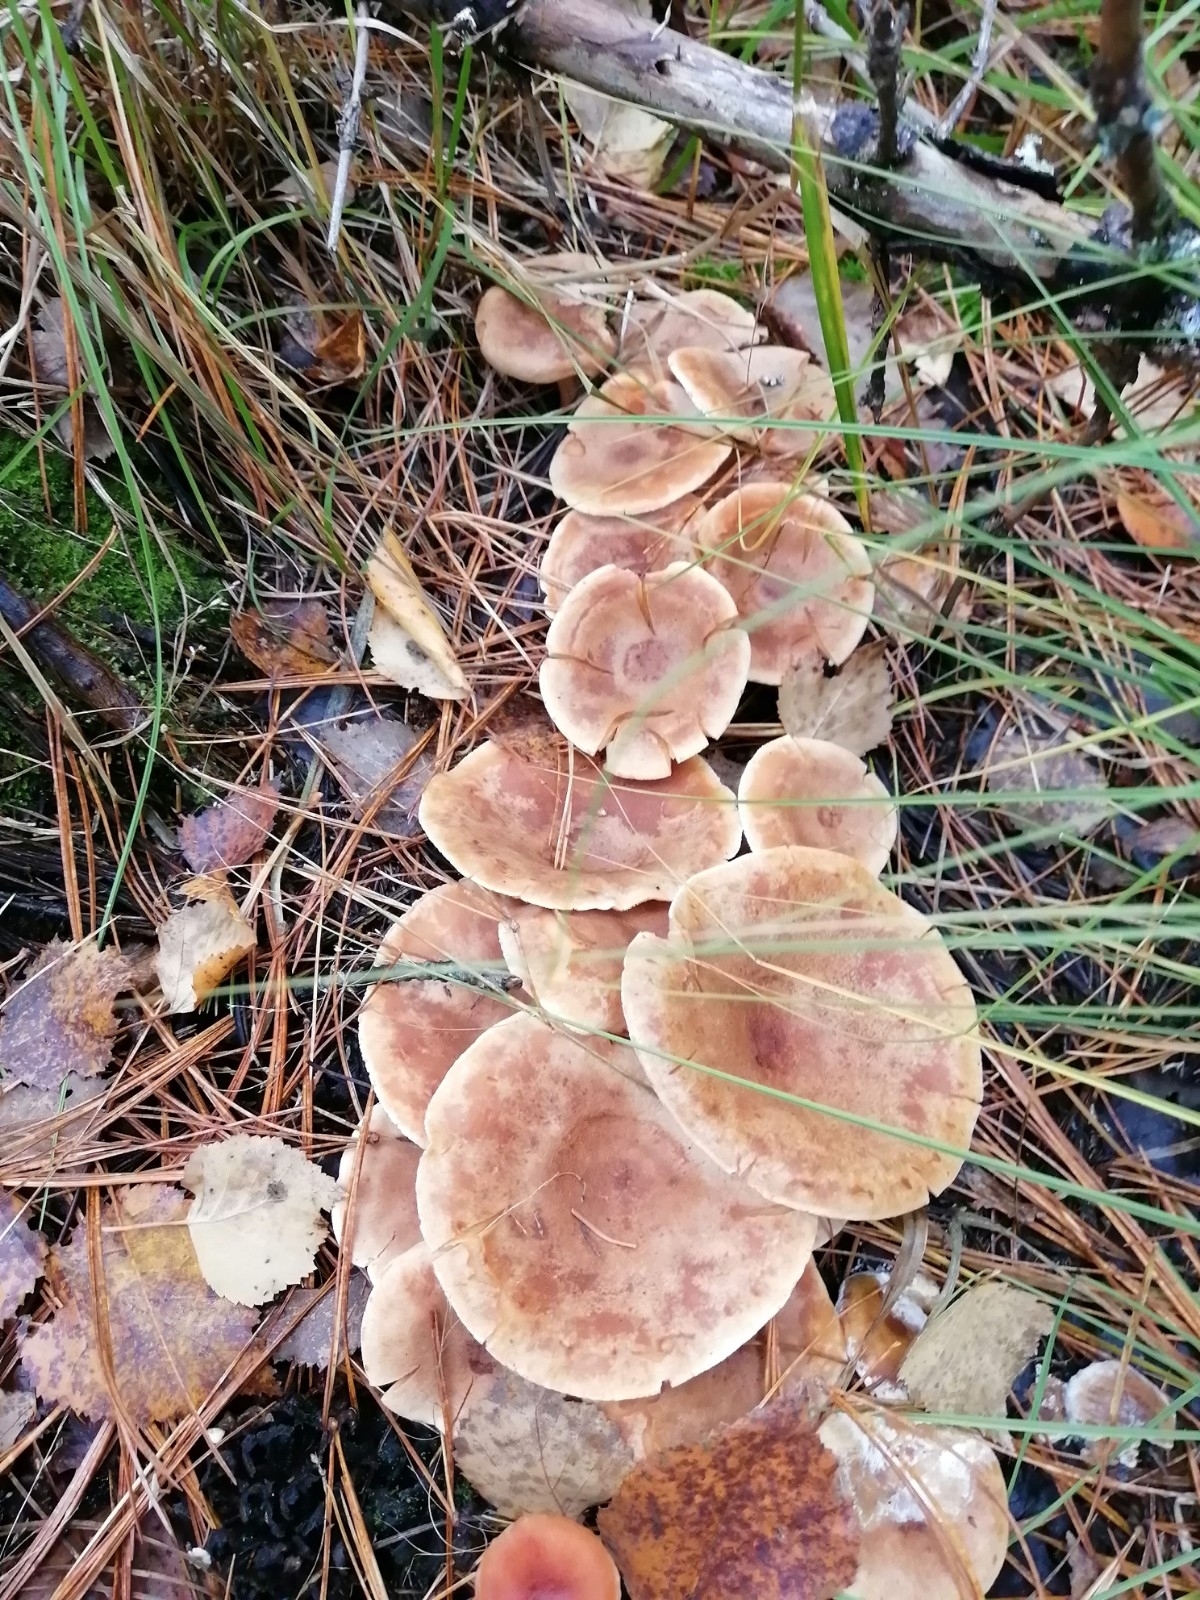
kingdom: Fungi
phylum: Basidiomycota
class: Agaricomycetes
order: Russulales
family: Russulaceae
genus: Lactarius
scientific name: Lactarius helvus
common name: Fenugreek milkcap
